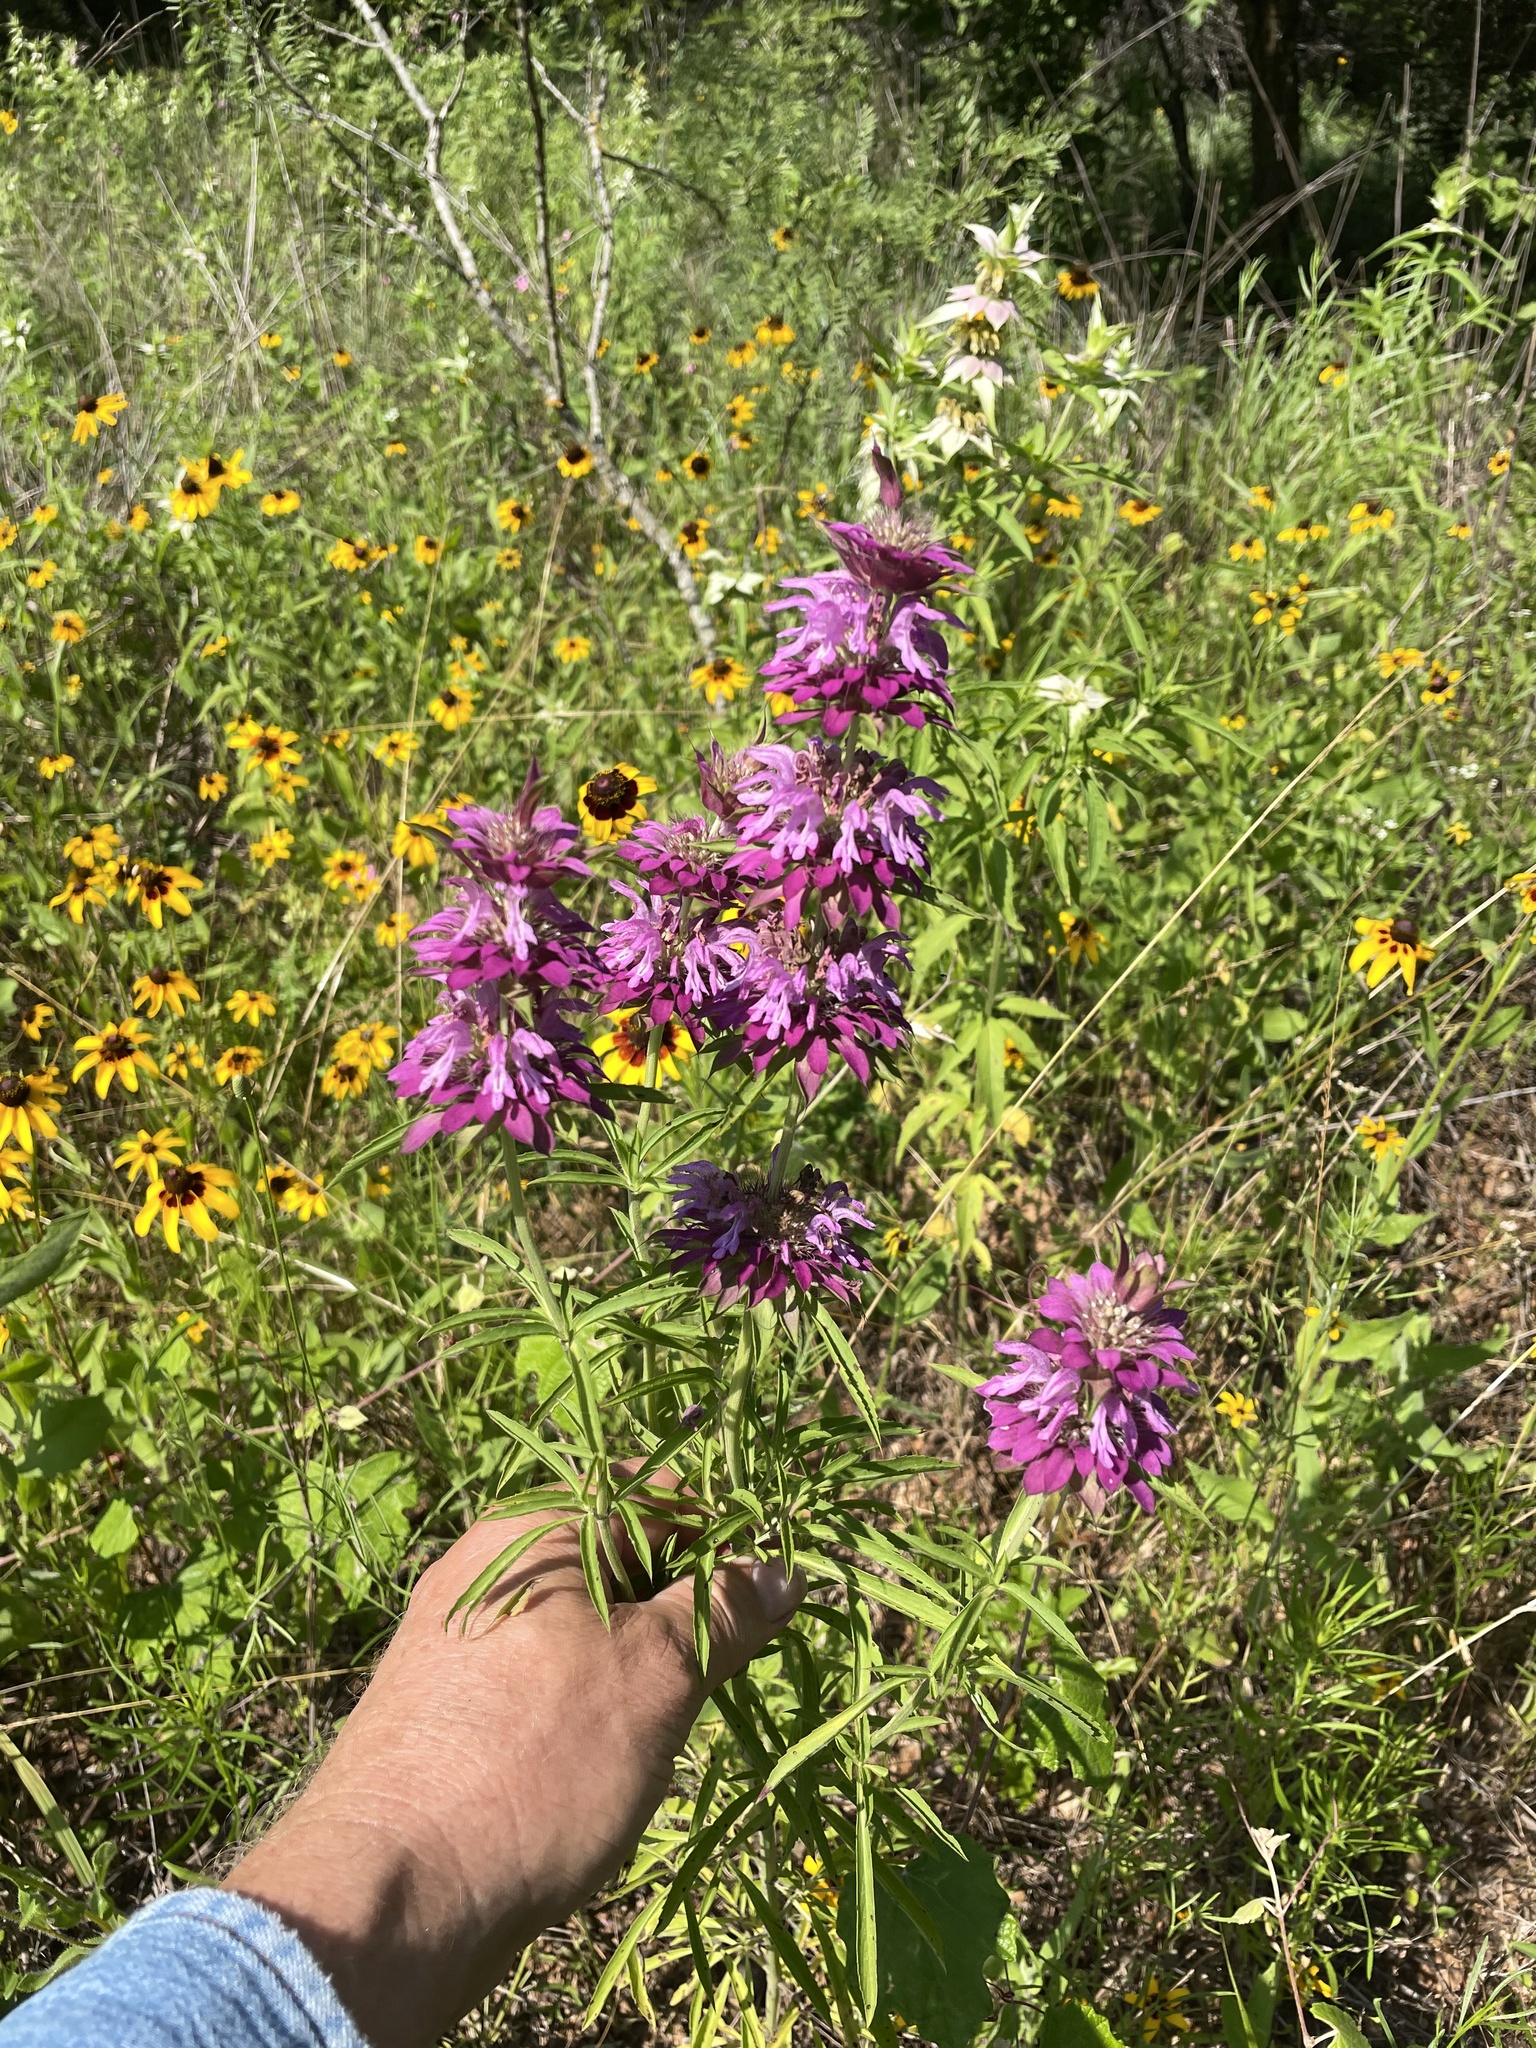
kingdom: Plantae
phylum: Tracheophyta
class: Magnoliopsida
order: Lamiales
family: Lamiaceae
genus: Monarda
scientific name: Monarda citriodora
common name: Lemon beebalm
